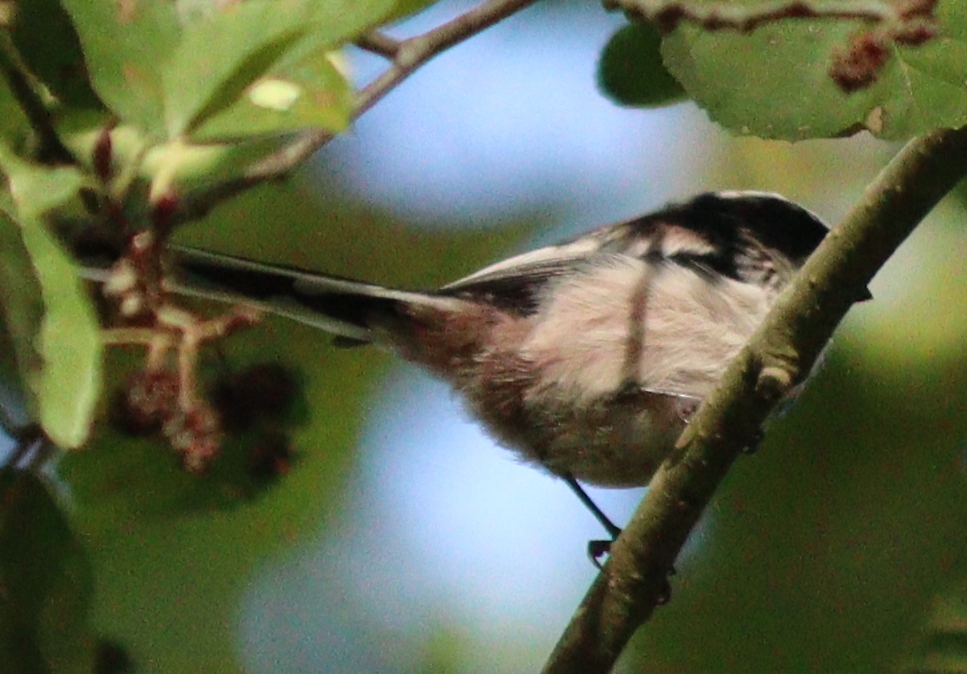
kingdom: Animalia
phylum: Chordata
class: Aves
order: Passeriformes
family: Aegithalidae
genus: Aegithalos
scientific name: Aegithalos caudatus
